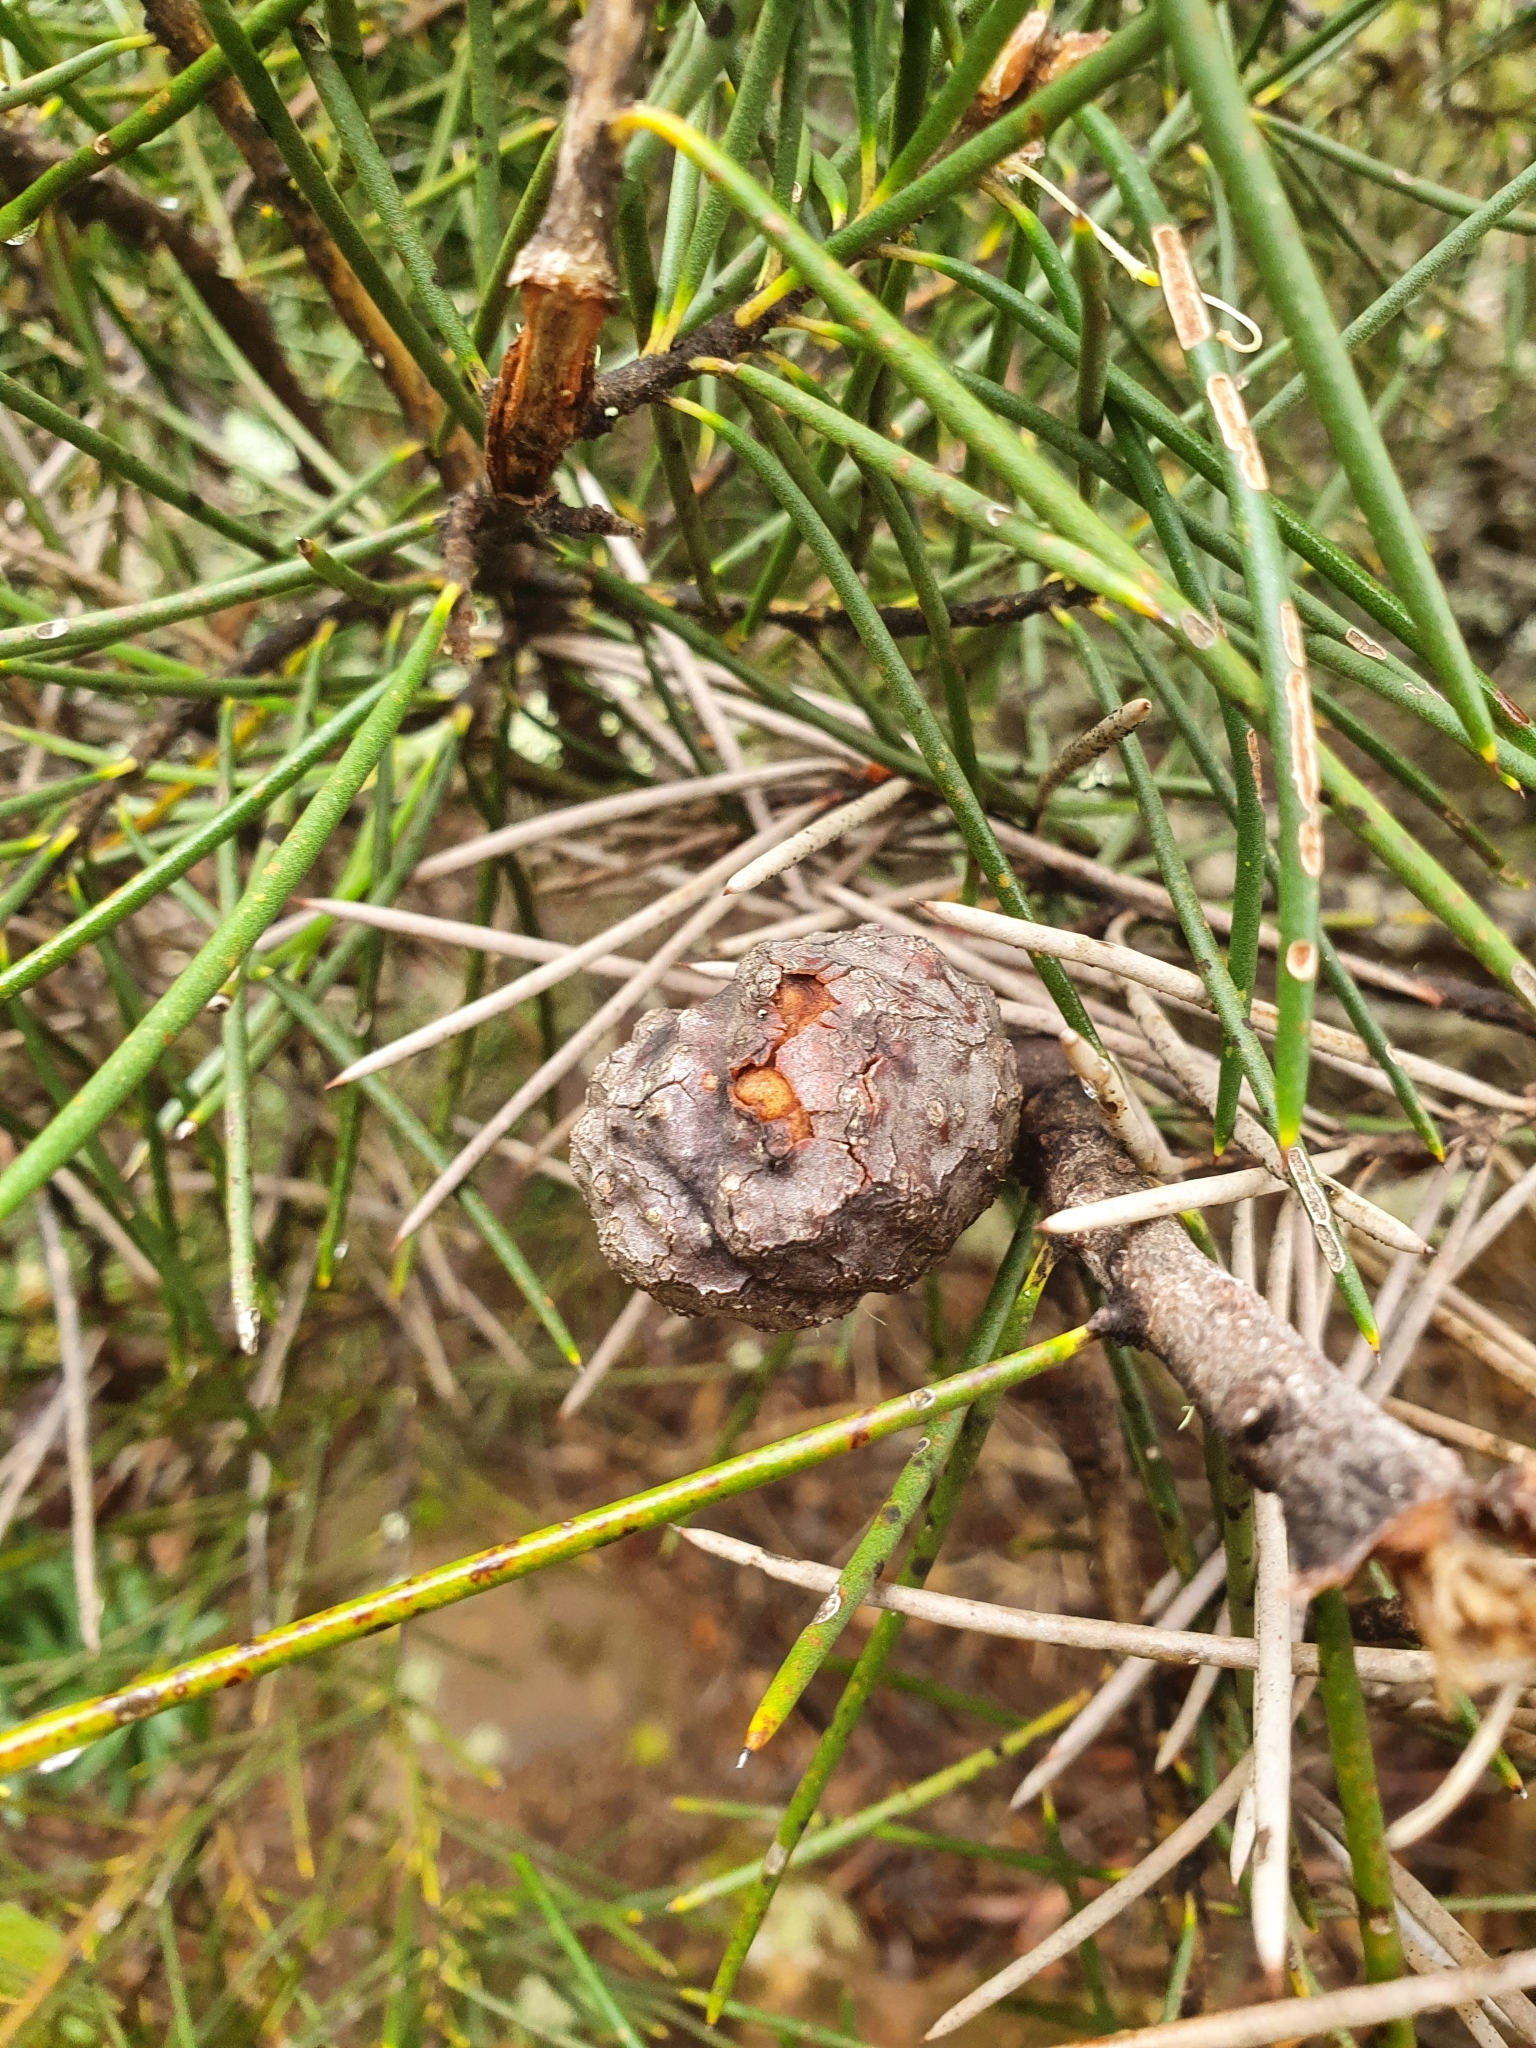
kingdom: Plantae
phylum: Tracheophyta
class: Magnoliopsida
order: Proteales
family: Proteaceae
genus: Hakea
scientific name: Hakea lissosperma
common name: Mountain needlewood
